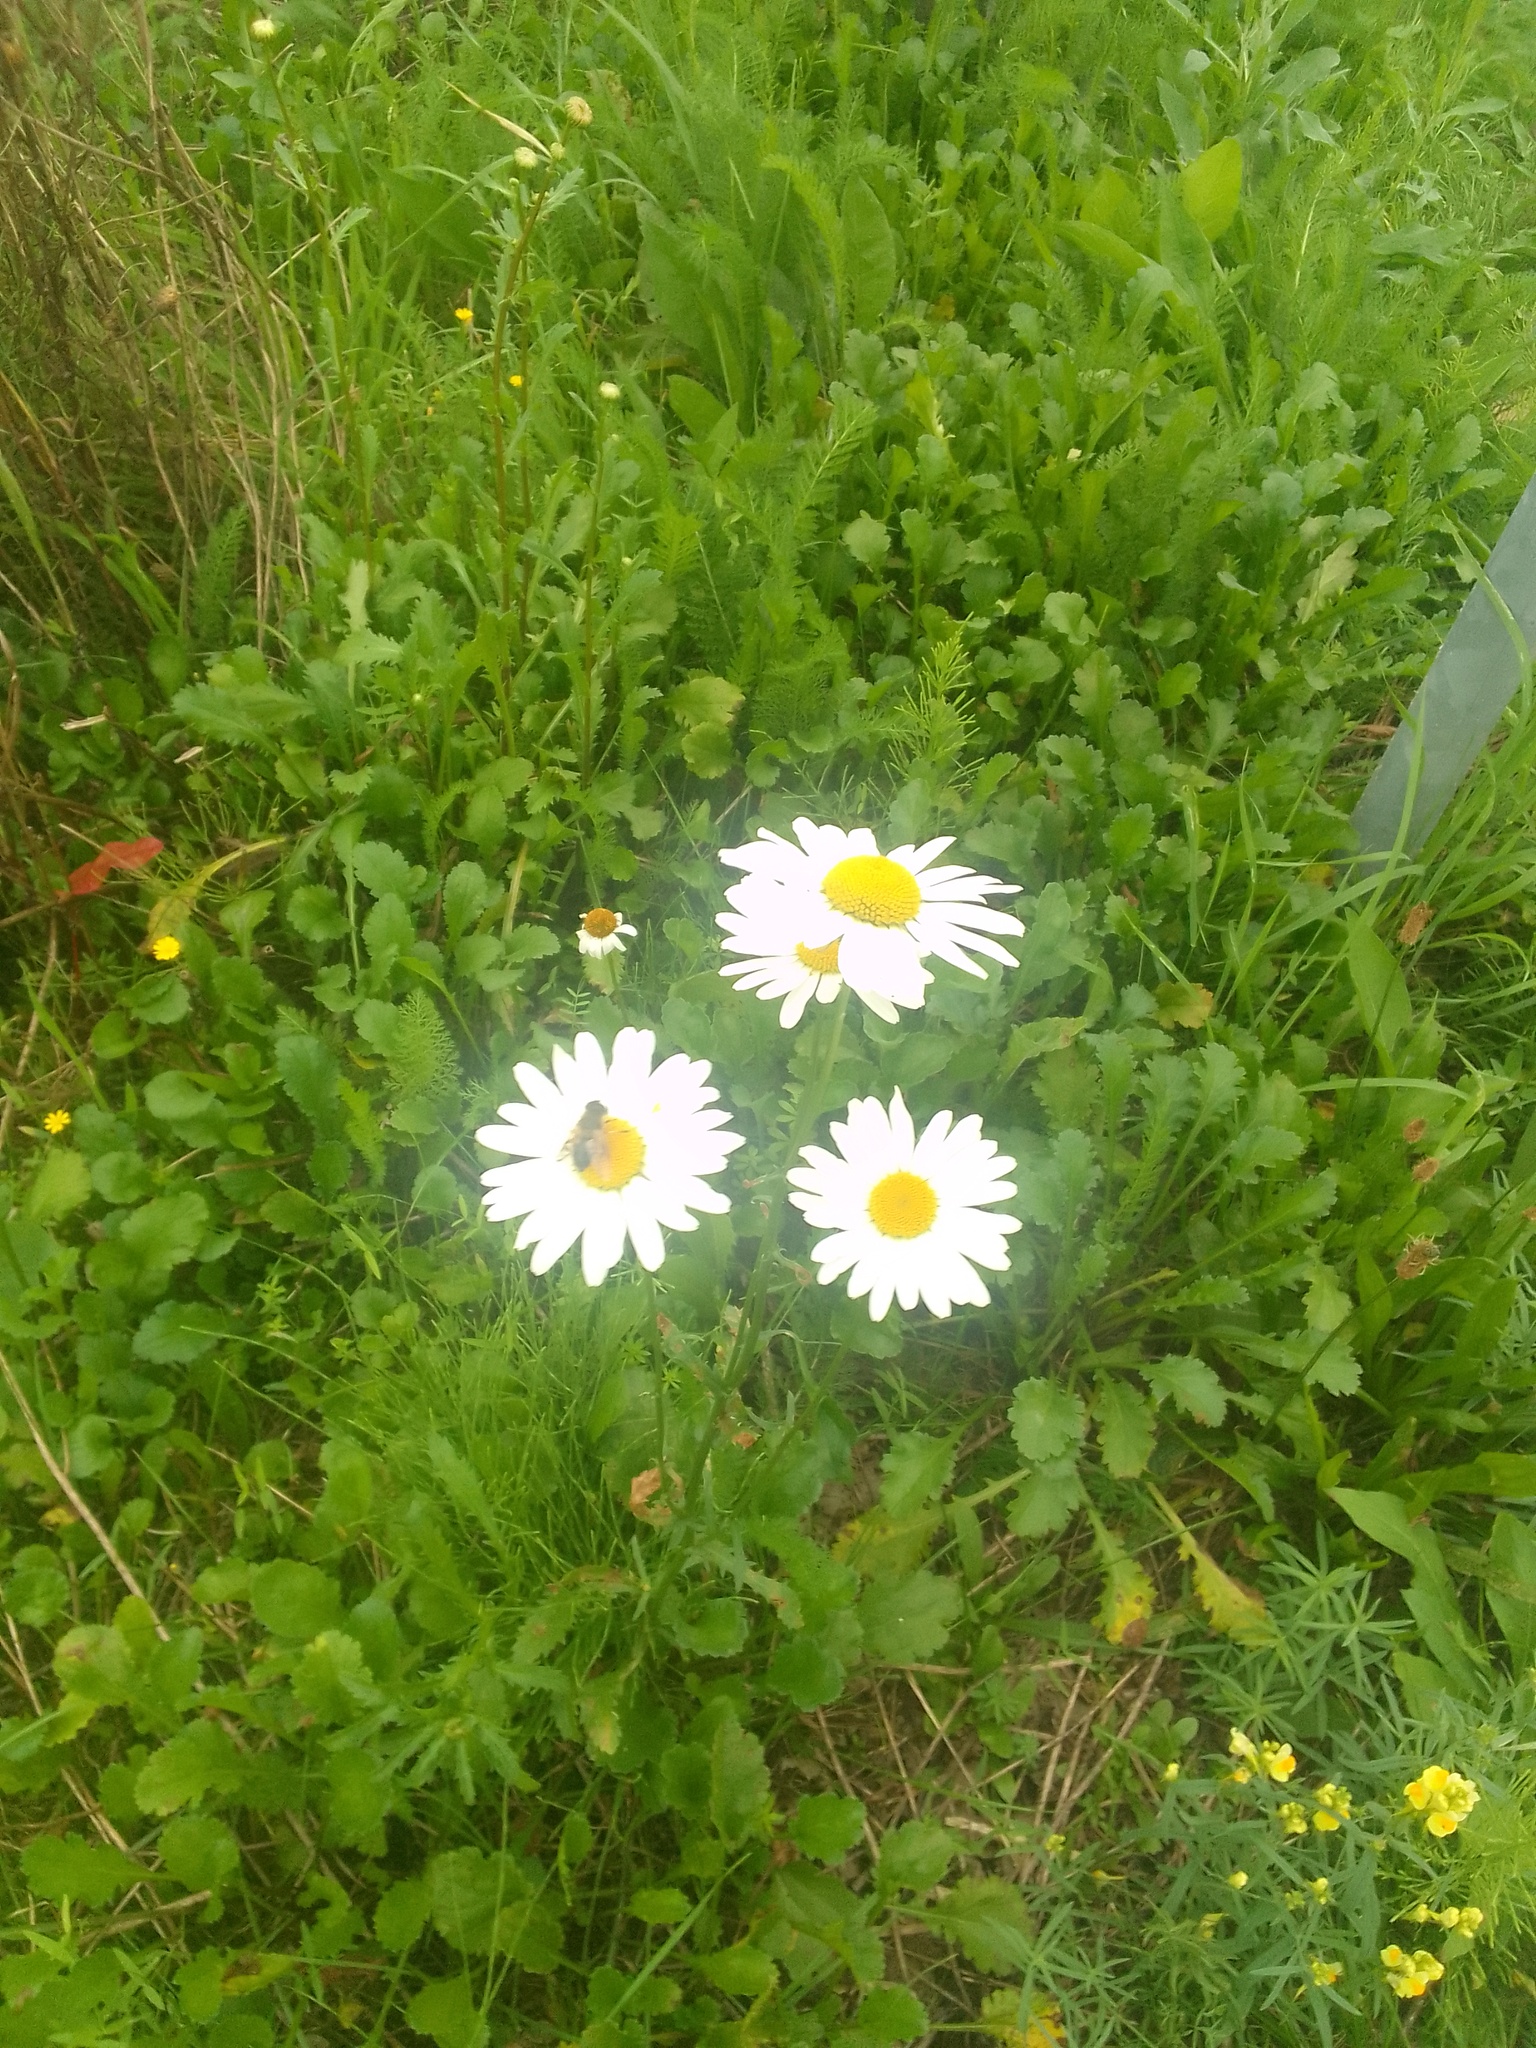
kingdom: Plantae
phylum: Tracheophyta
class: Magnoliopsida
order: Asterales
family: Asteraceae
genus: Leucanthemum
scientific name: Leucanthemum vulgare
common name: Oxeye daisy
